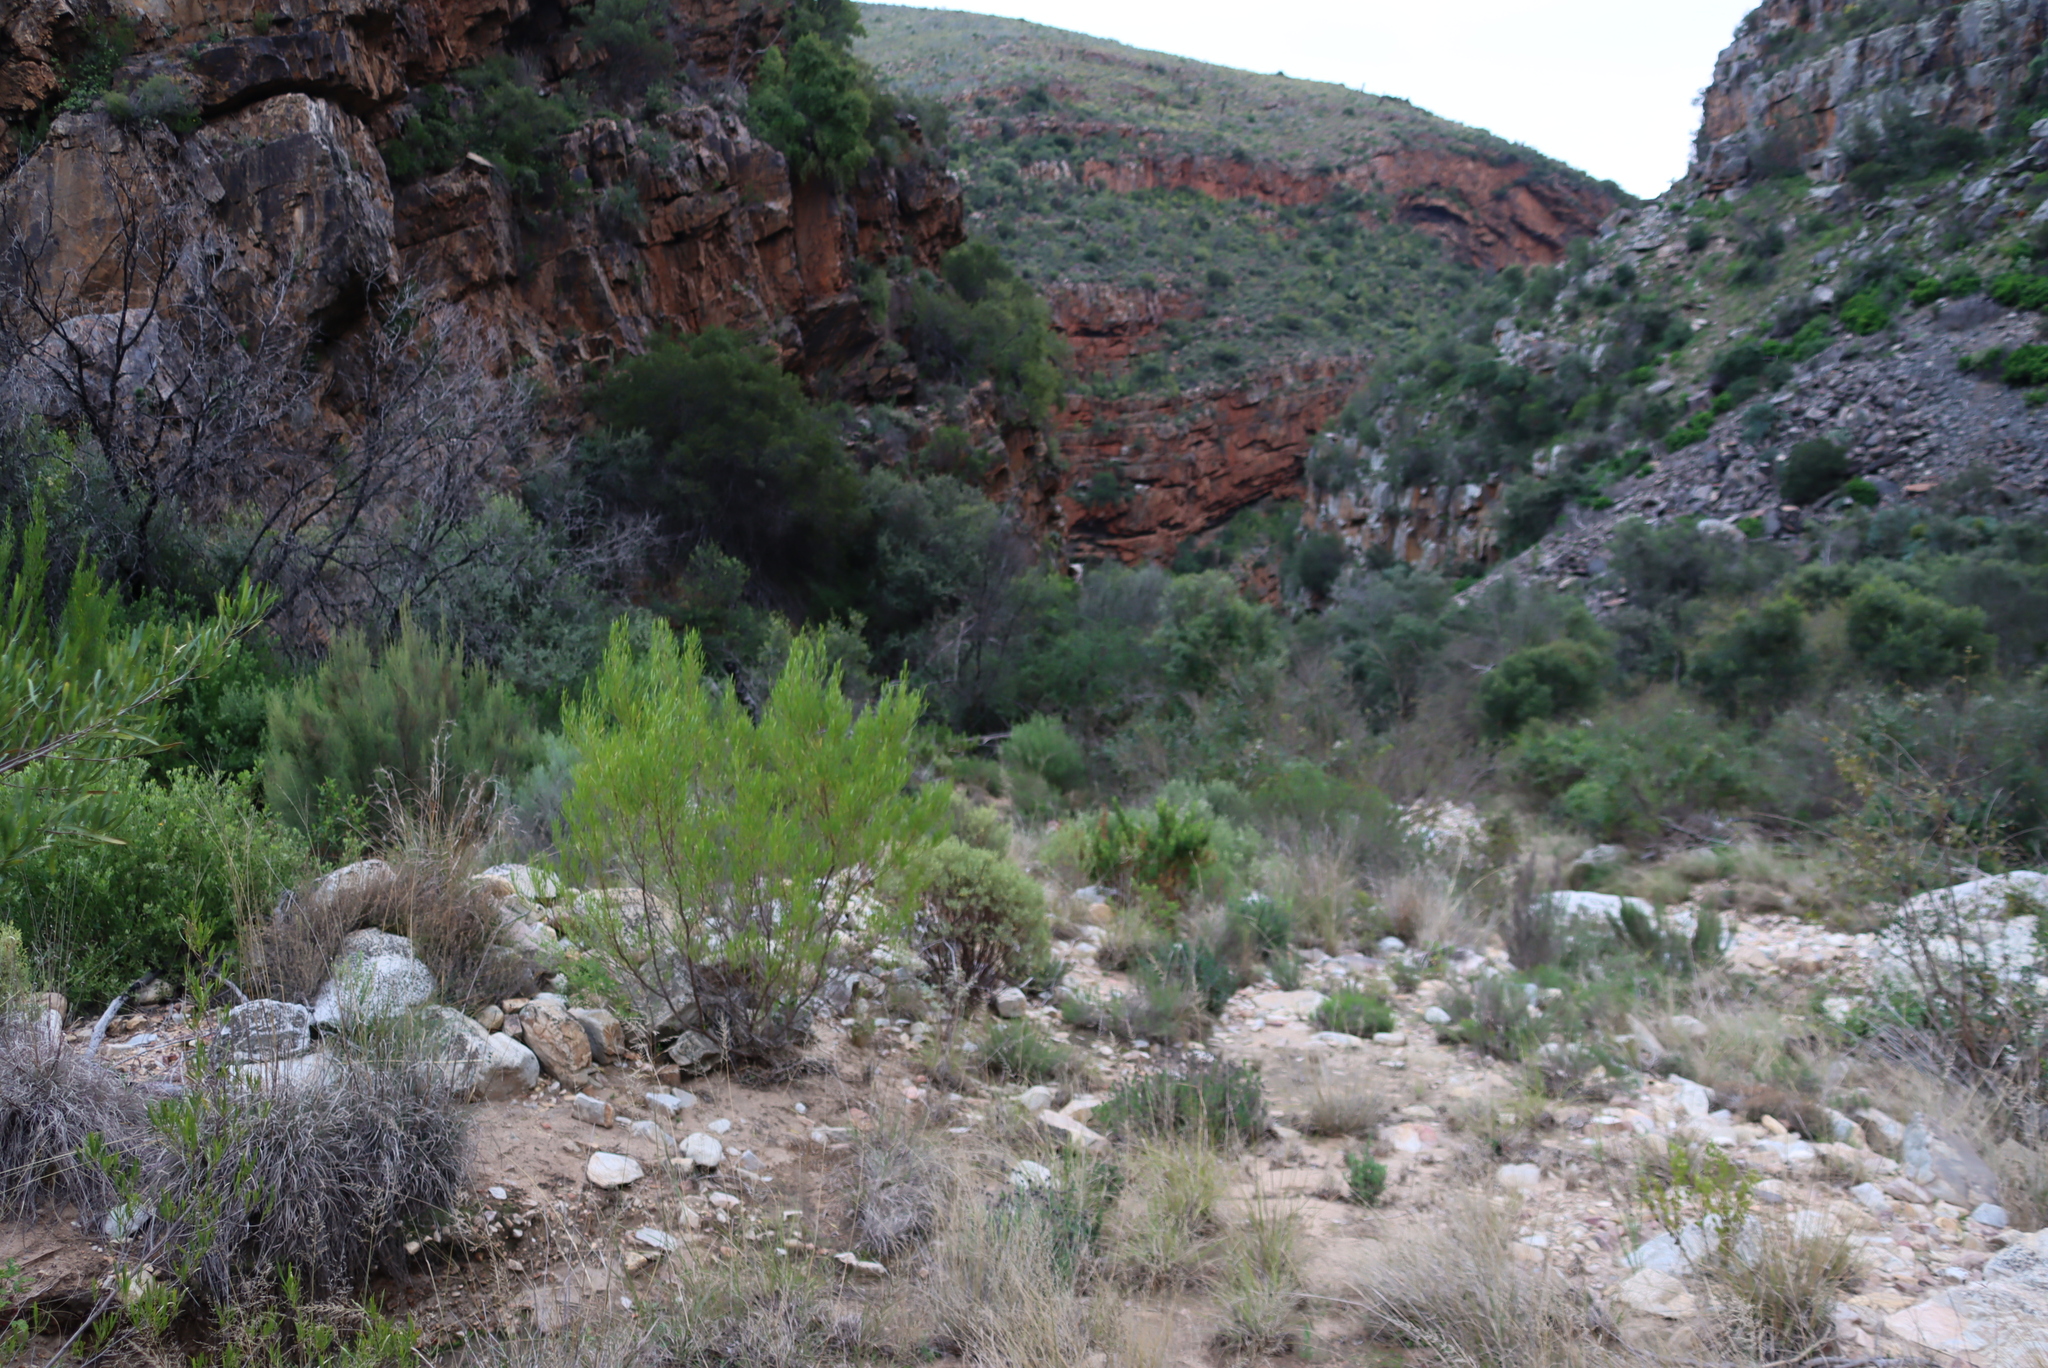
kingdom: Plantae
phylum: Tracheophyta
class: Magnoliopsida
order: Sapindales
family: Sapindaceae
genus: Dodonaea
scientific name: Dodonaea viscosa
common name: Hopbush
